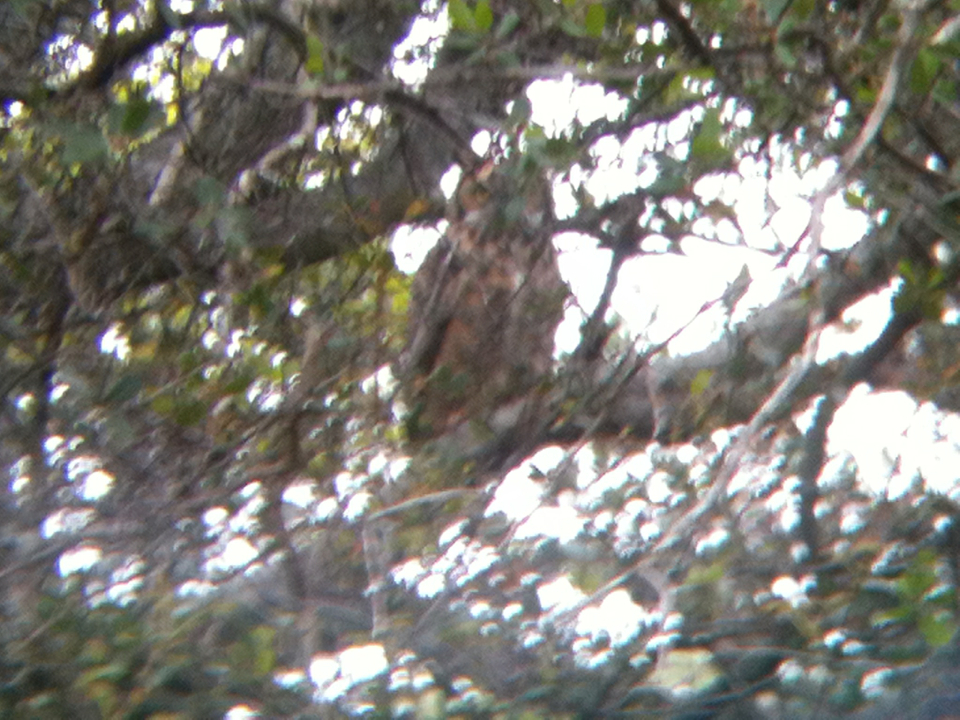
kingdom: Animalia
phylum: Chordata
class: Aves
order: Strigiformes
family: Strigidae
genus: Bubo
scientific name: Bubo virginianus
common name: Great horned owl
